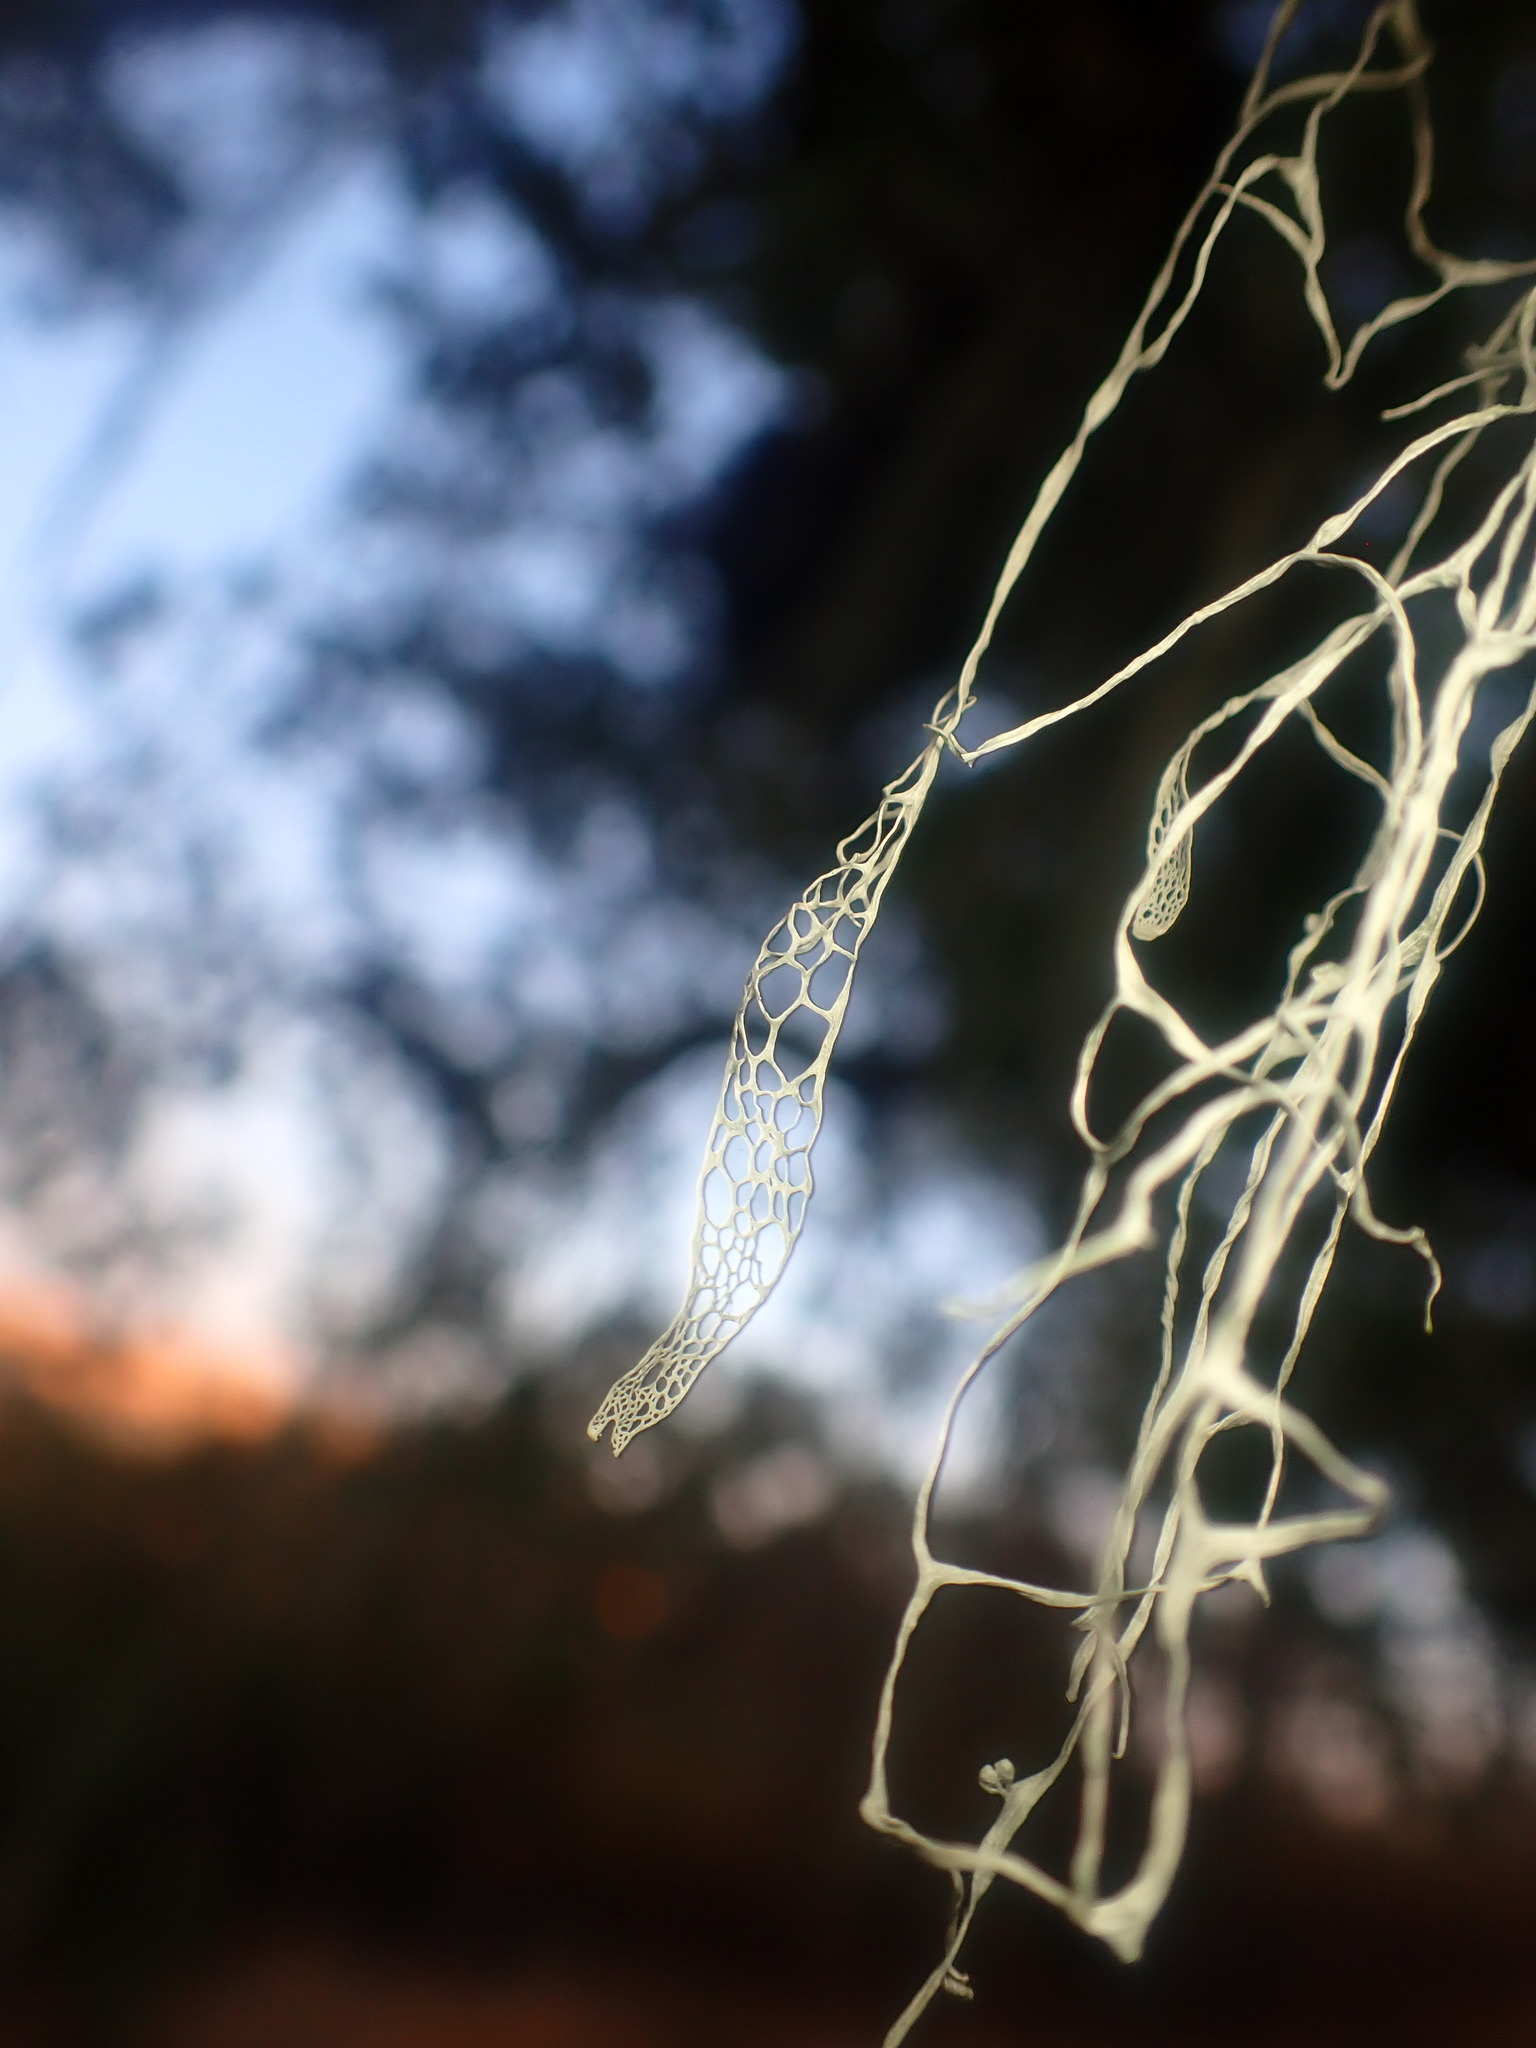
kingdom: Fungi
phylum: Ascomycota
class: Lecanoromycetes
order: Lecanorales
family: Ramalinaceae
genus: Ramalina
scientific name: Ramalina menziesii
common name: Lace lichen
